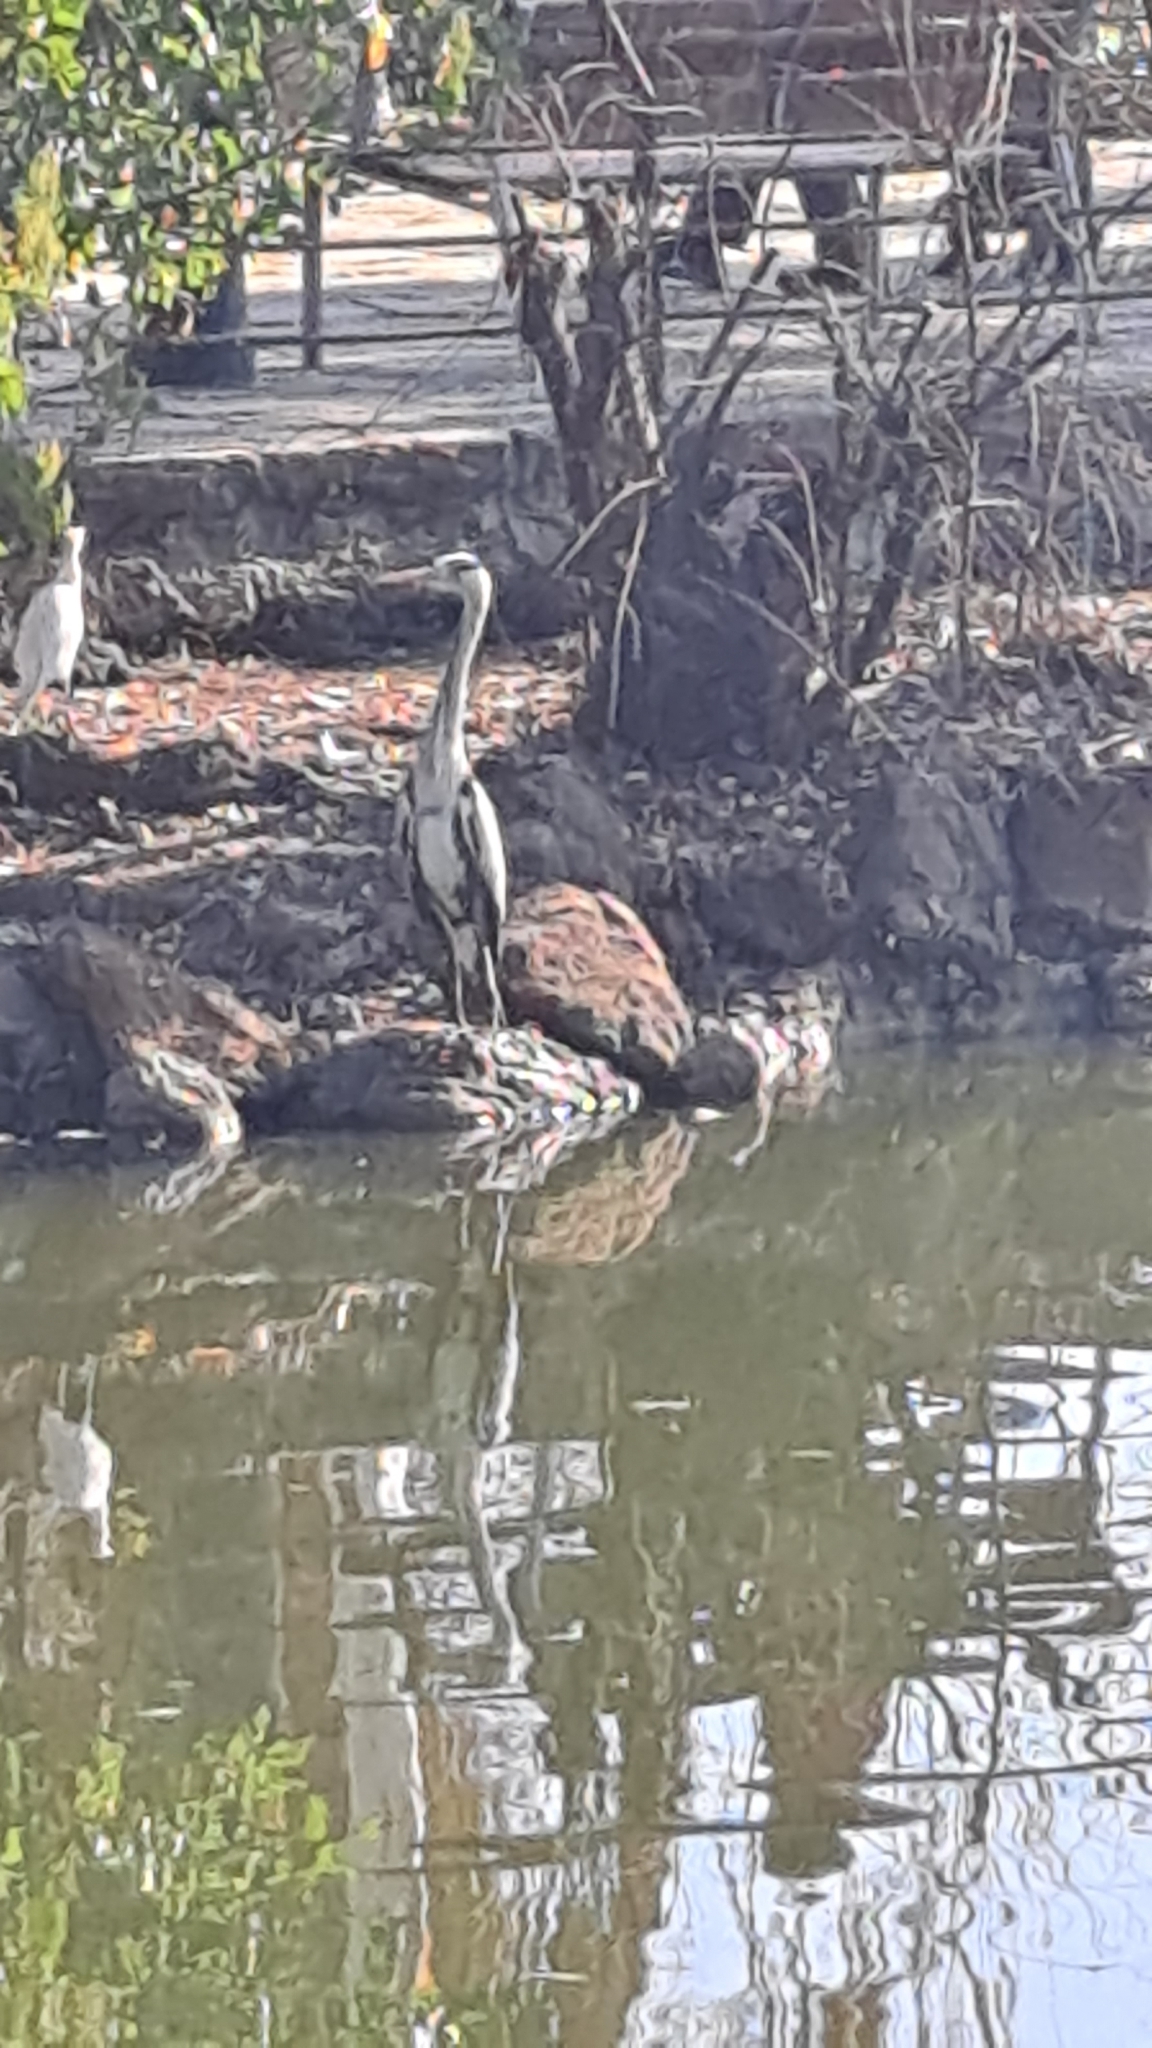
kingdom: Animalia
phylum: Chordata
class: Aves
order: Pelecaniformes
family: Ardeidae
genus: Ardea
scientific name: Ardea cinerea
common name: Grey heron
